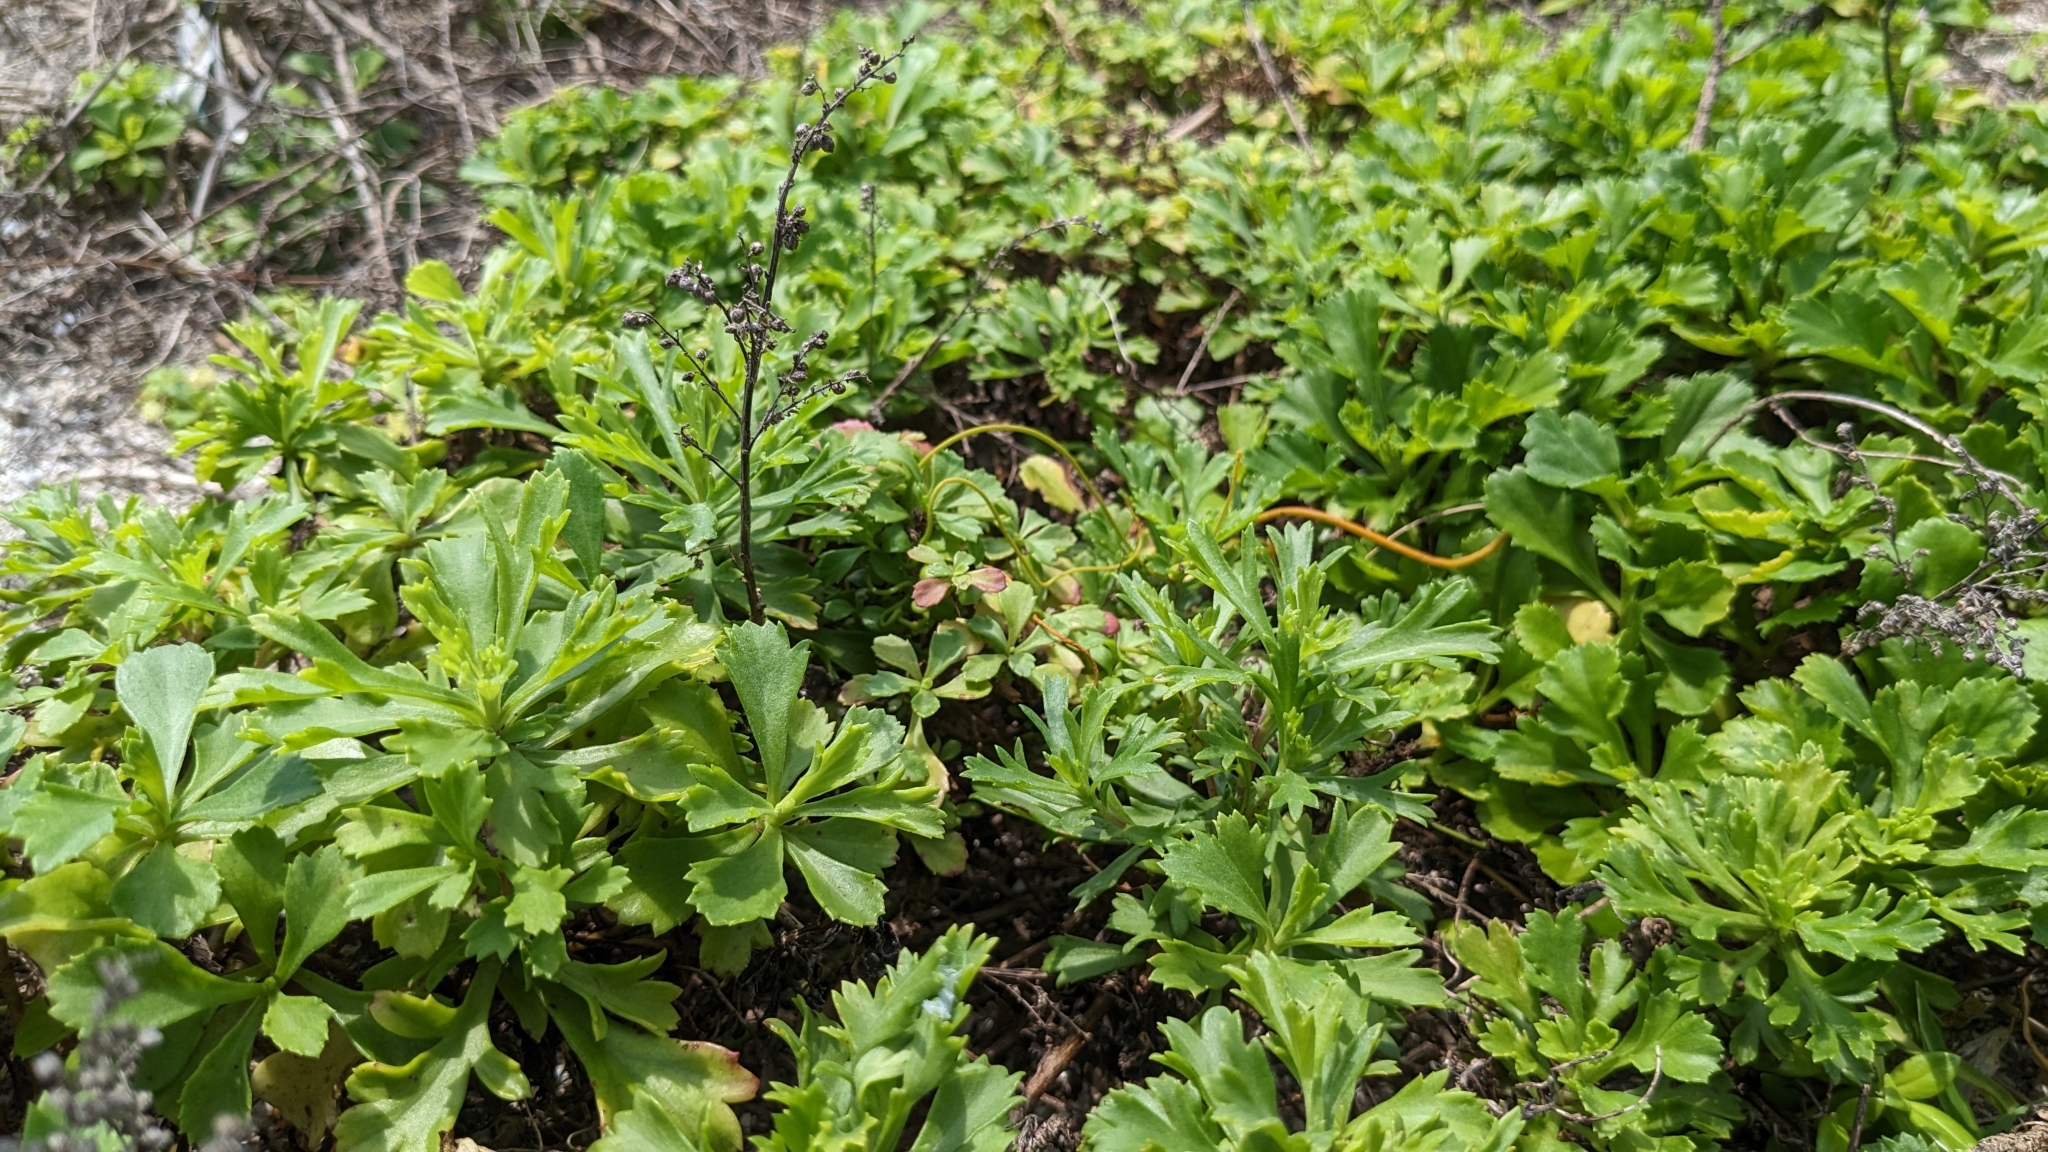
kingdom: Plantae
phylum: Tracheophyta
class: Magnoliopsida
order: Asterales
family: Asteraceae
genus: Artemisia
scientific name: Artemisia japonica
